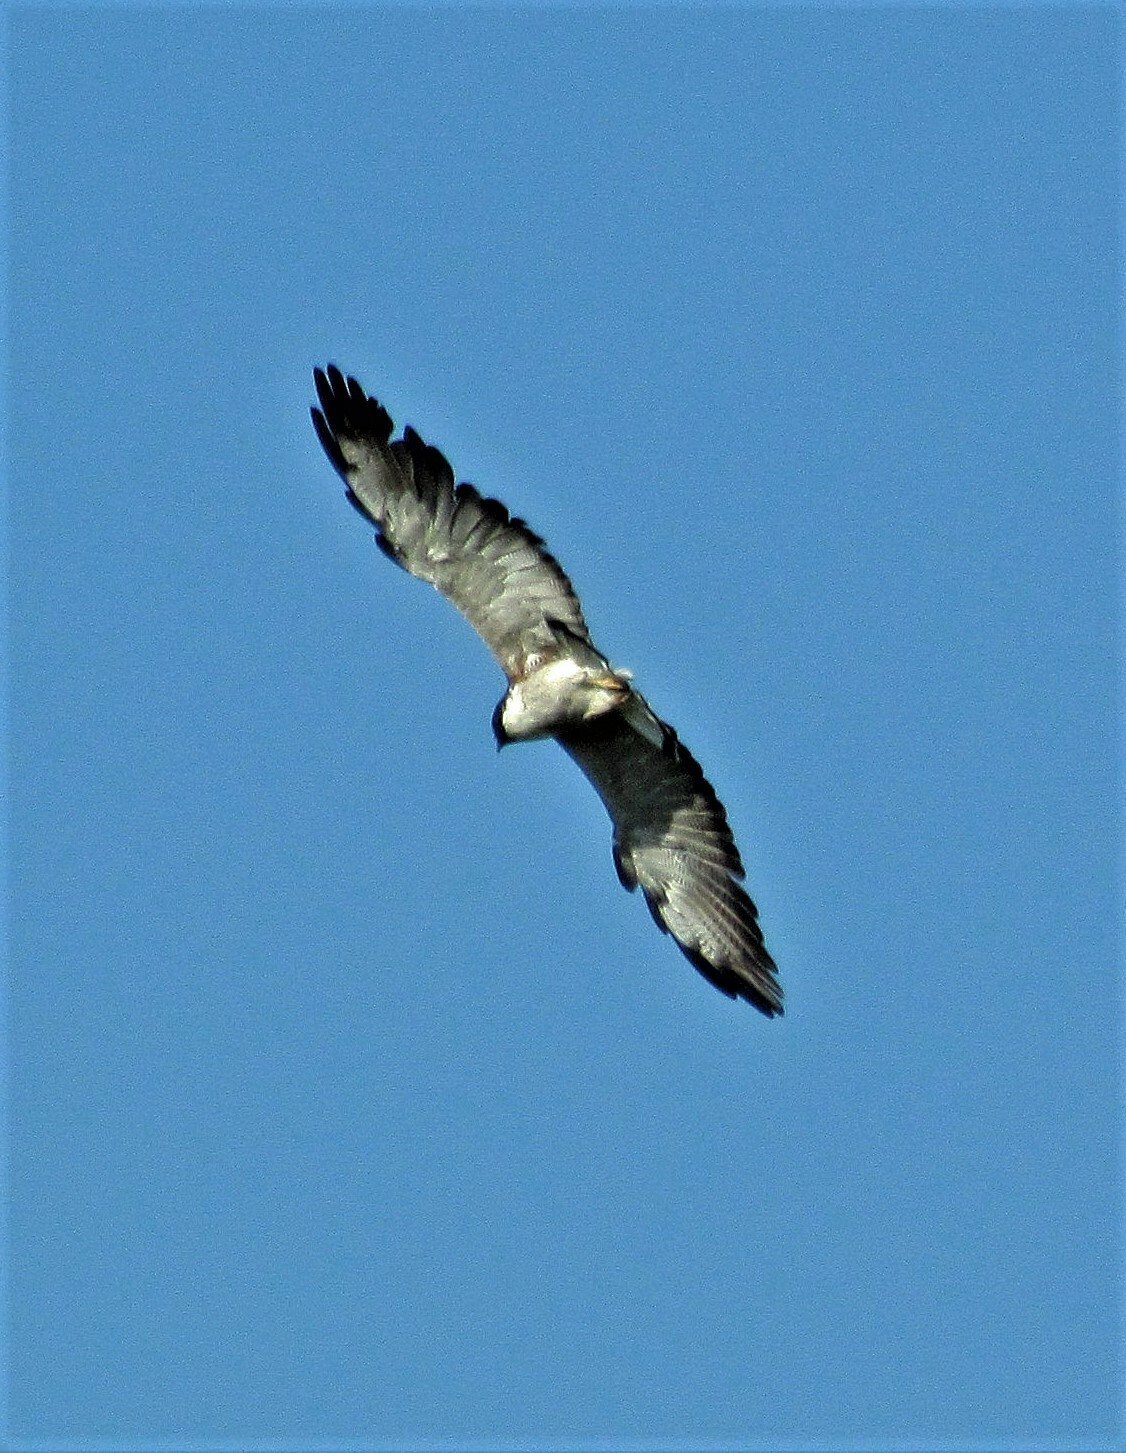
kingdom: Animalia
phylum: Chordata
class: Aves
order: Accipitriformes
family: Accipitridae
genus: Buteo
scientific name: Buteo albicaudatus
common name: White-tailed hawk
